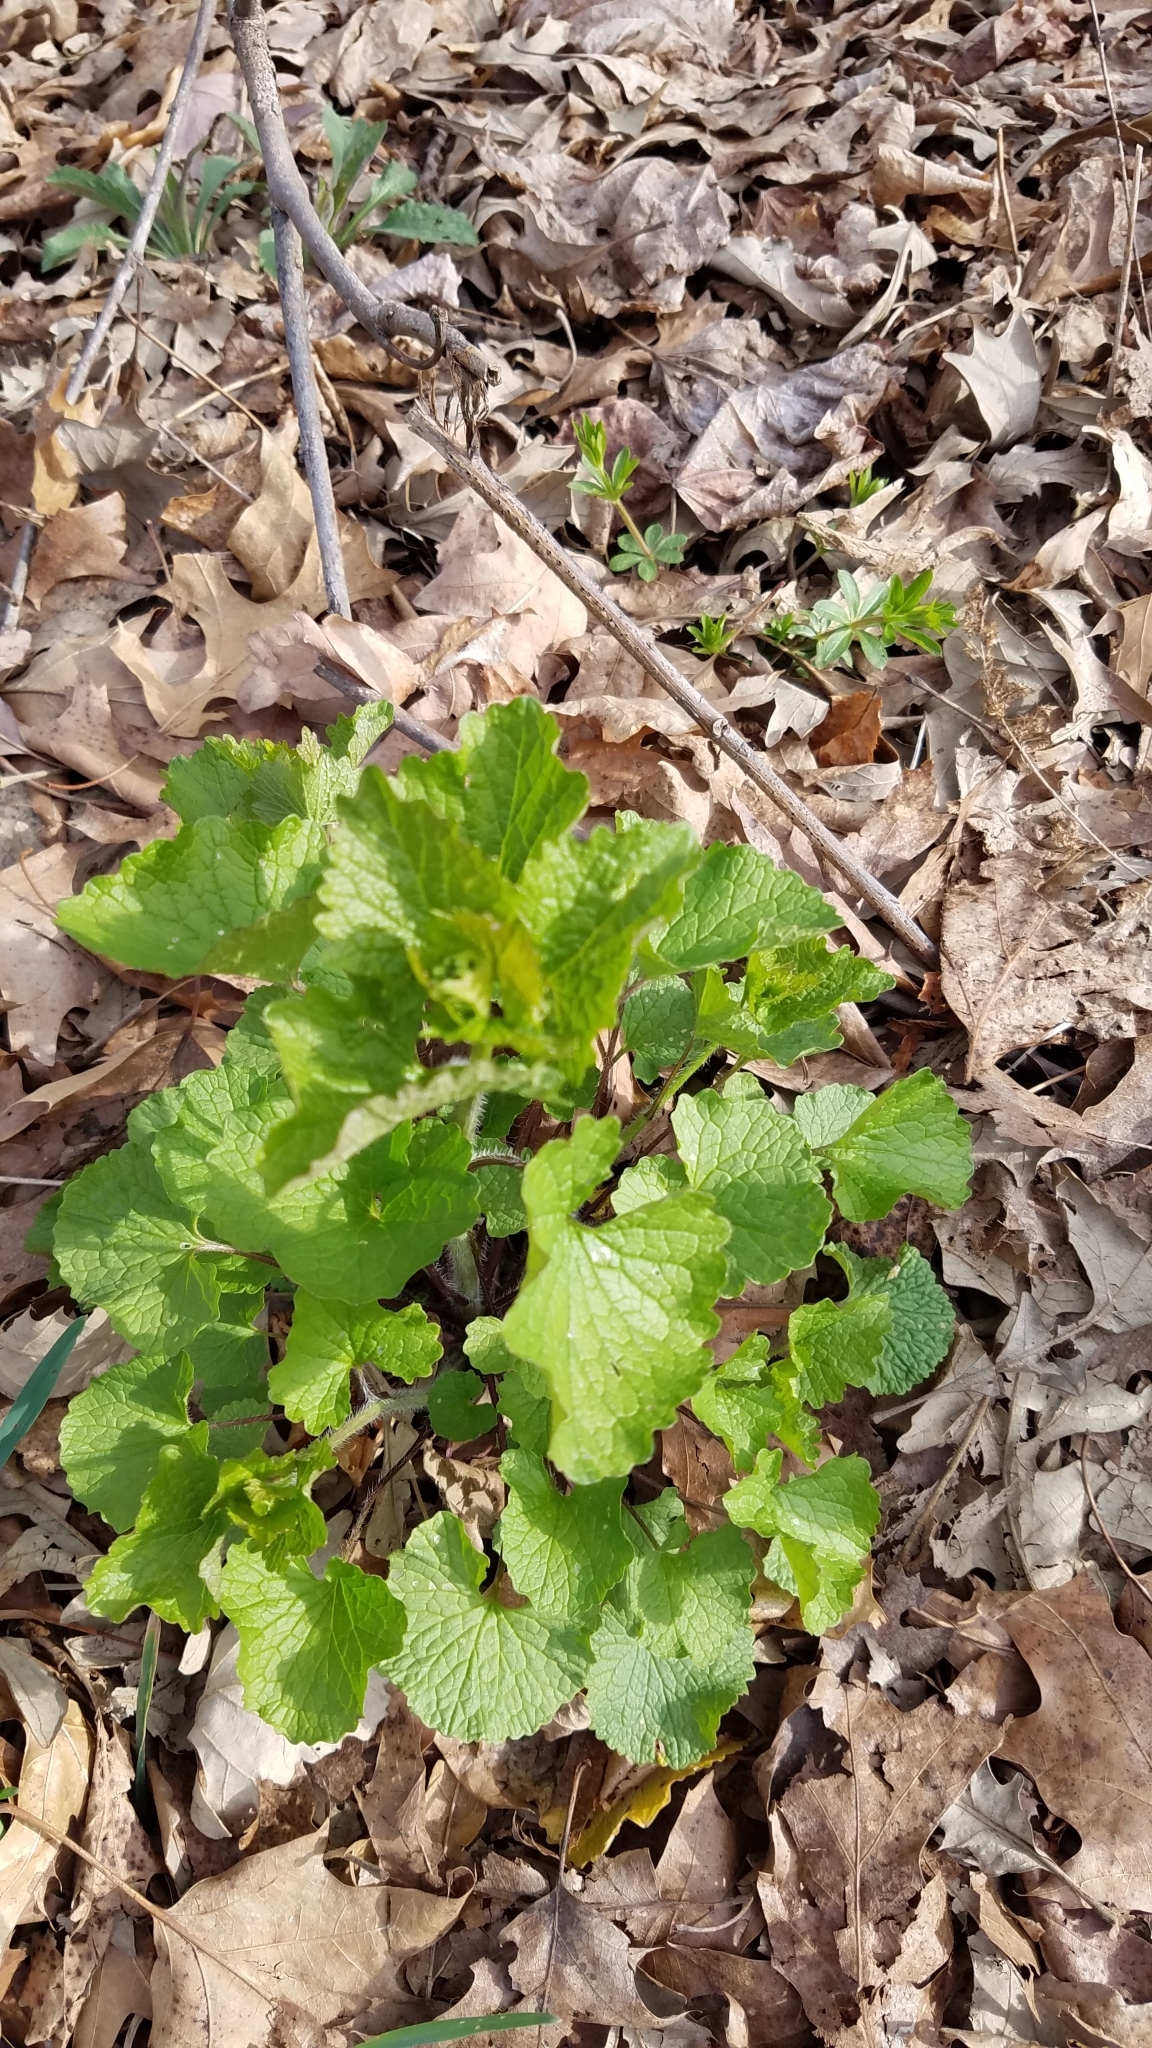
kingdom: Plantae
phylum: Tracheophyta
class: Magnoliopsida
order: Brassicales
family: Brassicaceae
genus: Alliaria
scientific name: Alliaria petiolata
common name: Garlic mustard
